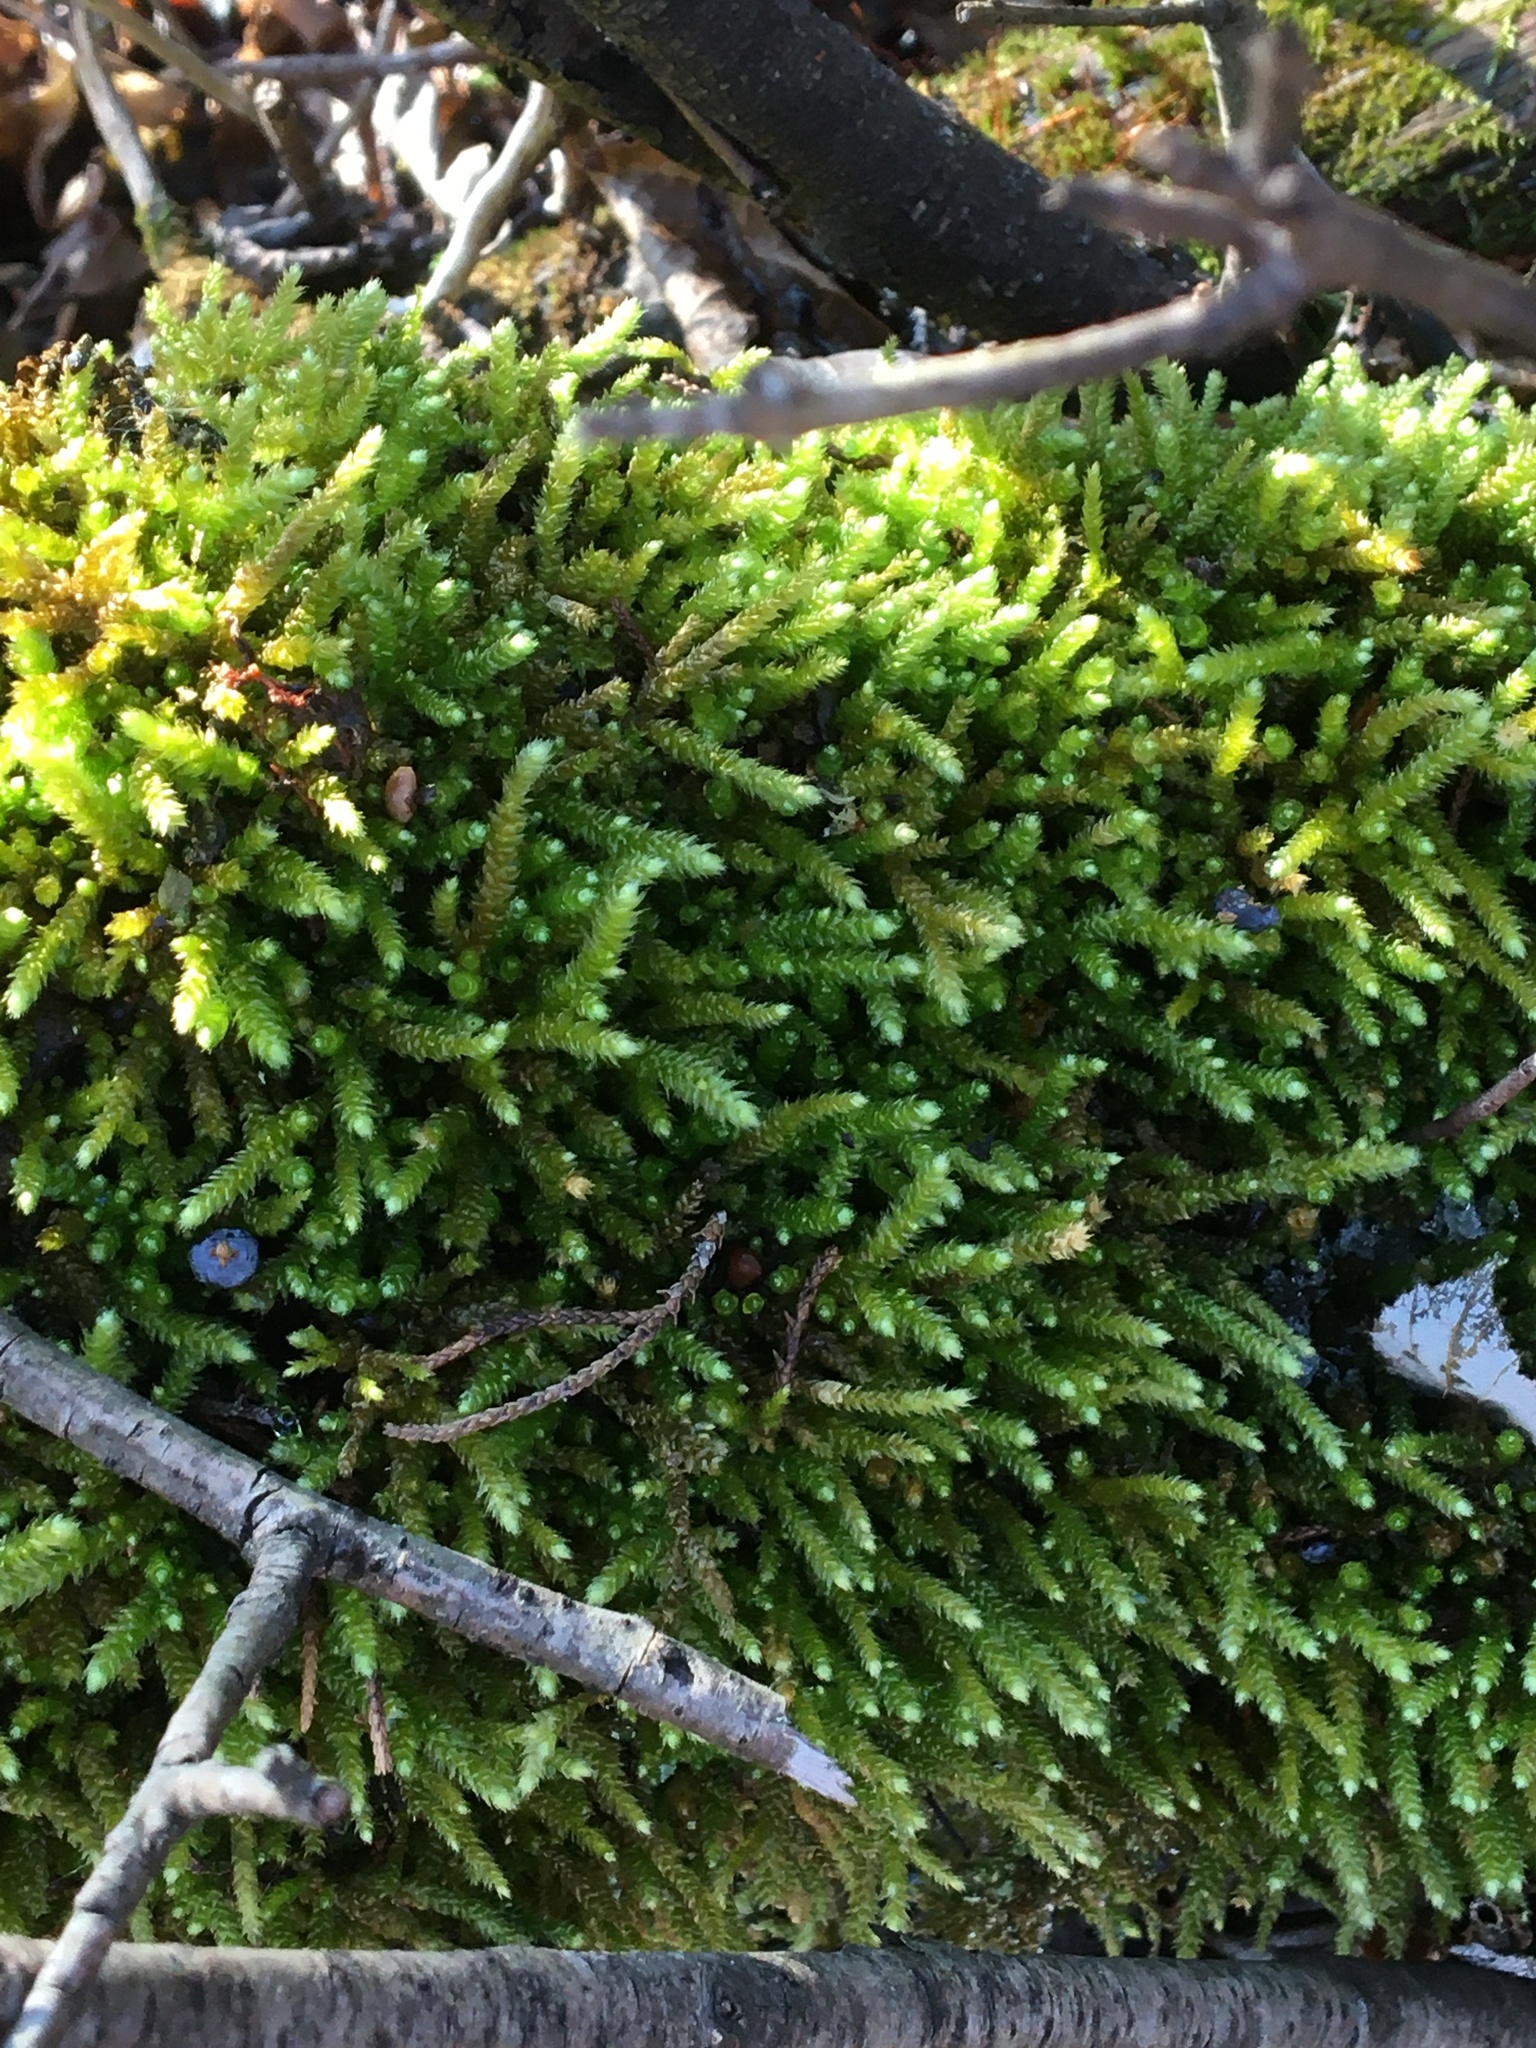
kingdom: Plantae
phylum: Bryophyta
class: Bryopsida
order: Hypnales
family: Brachytheciaceae
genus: Bryoandersonia
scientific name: Bryoandersonia illecebra
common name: Spoon-leaved moss
